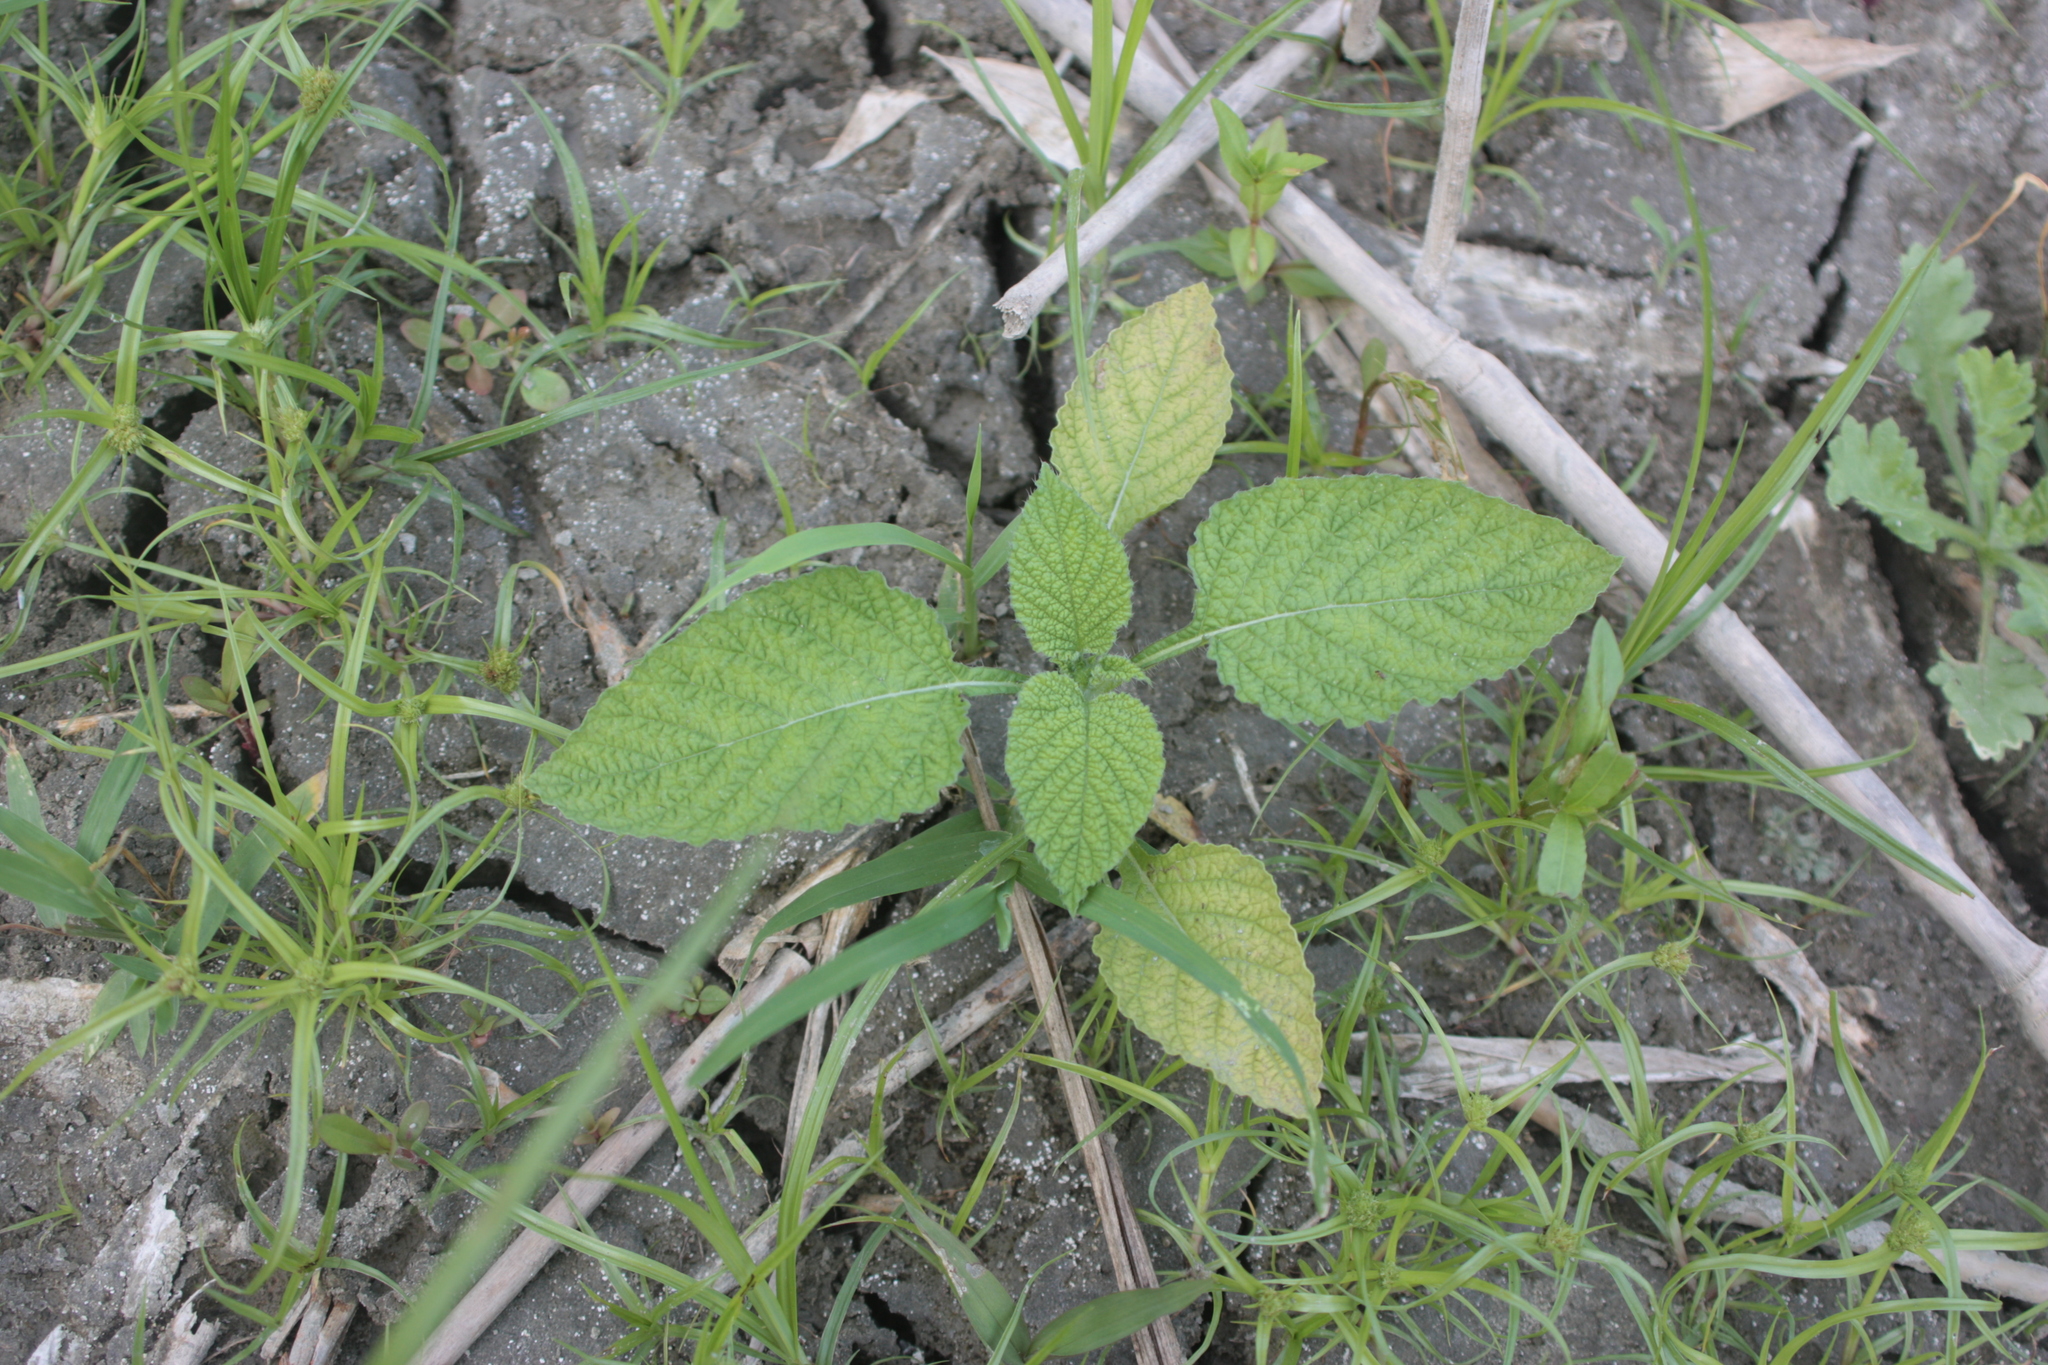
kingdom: Plantae
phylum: Tracheophyta
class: Magnoliopsida
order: Boraginales
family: Heliotropiaceae
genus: Heliotropium
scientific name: Heliotropium indicum
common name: Indian heliotrope
